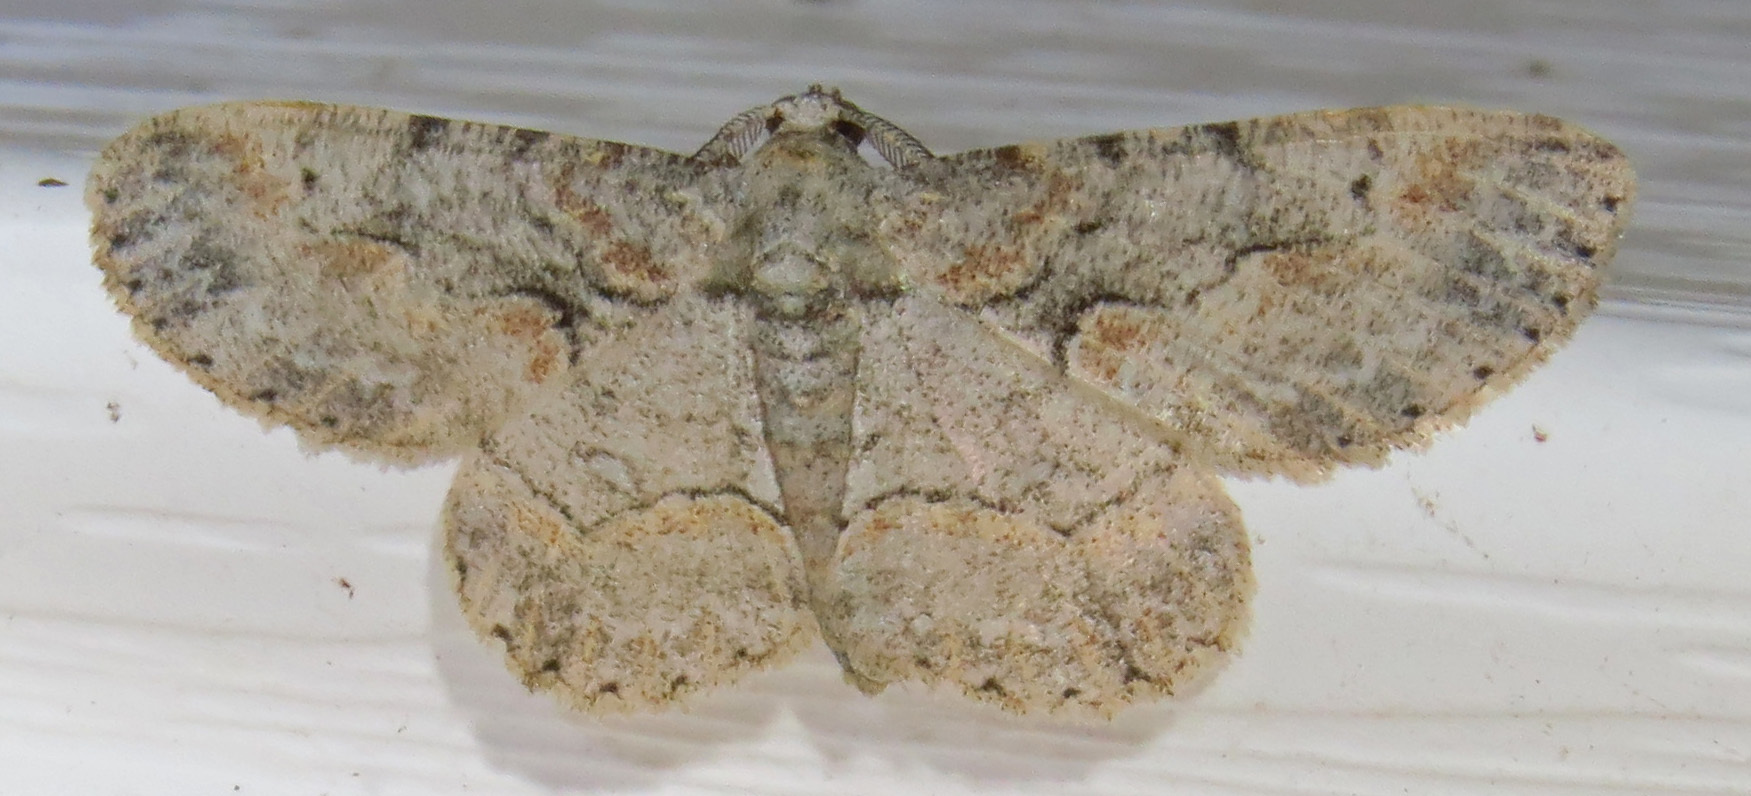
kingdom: Animalia
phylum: Arthropoda
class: Insecta
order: Lepidoptera
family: Geometridae
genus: Iridopsis
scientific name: Iridopsis defectaria
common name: Brown-shaded gray
